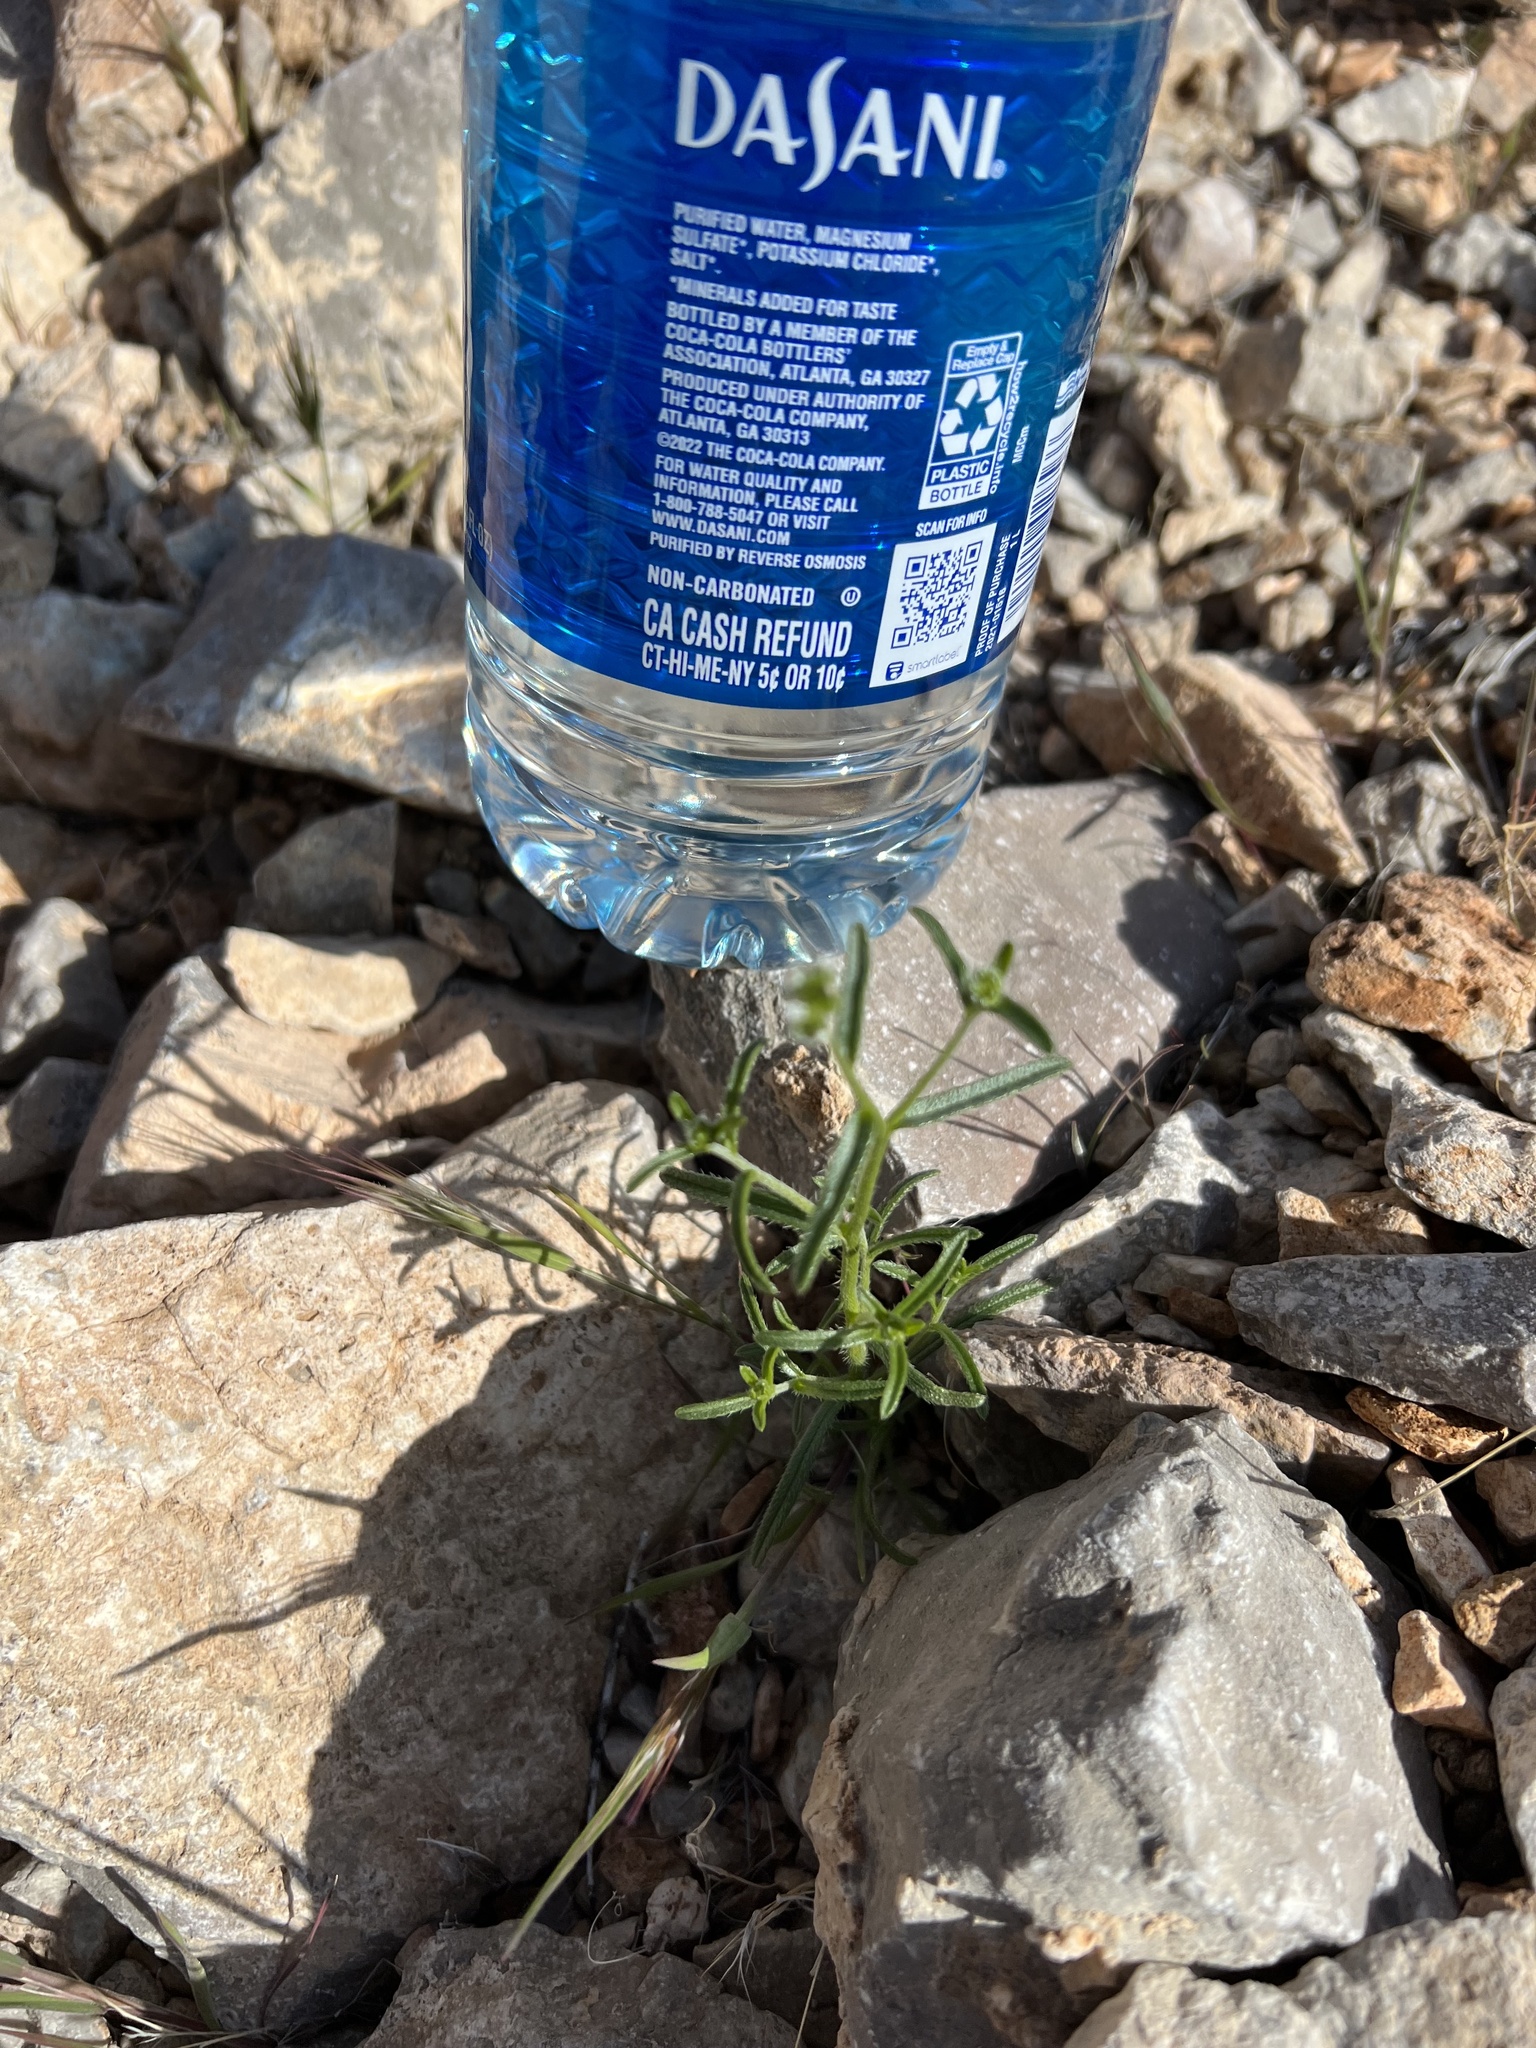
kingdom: Plantae
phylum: Tracheophyta
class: Magnoliopsida
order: Boraginales
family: Boraginaceae
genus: Cryptantha
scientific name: Cryptantha pterocarya
